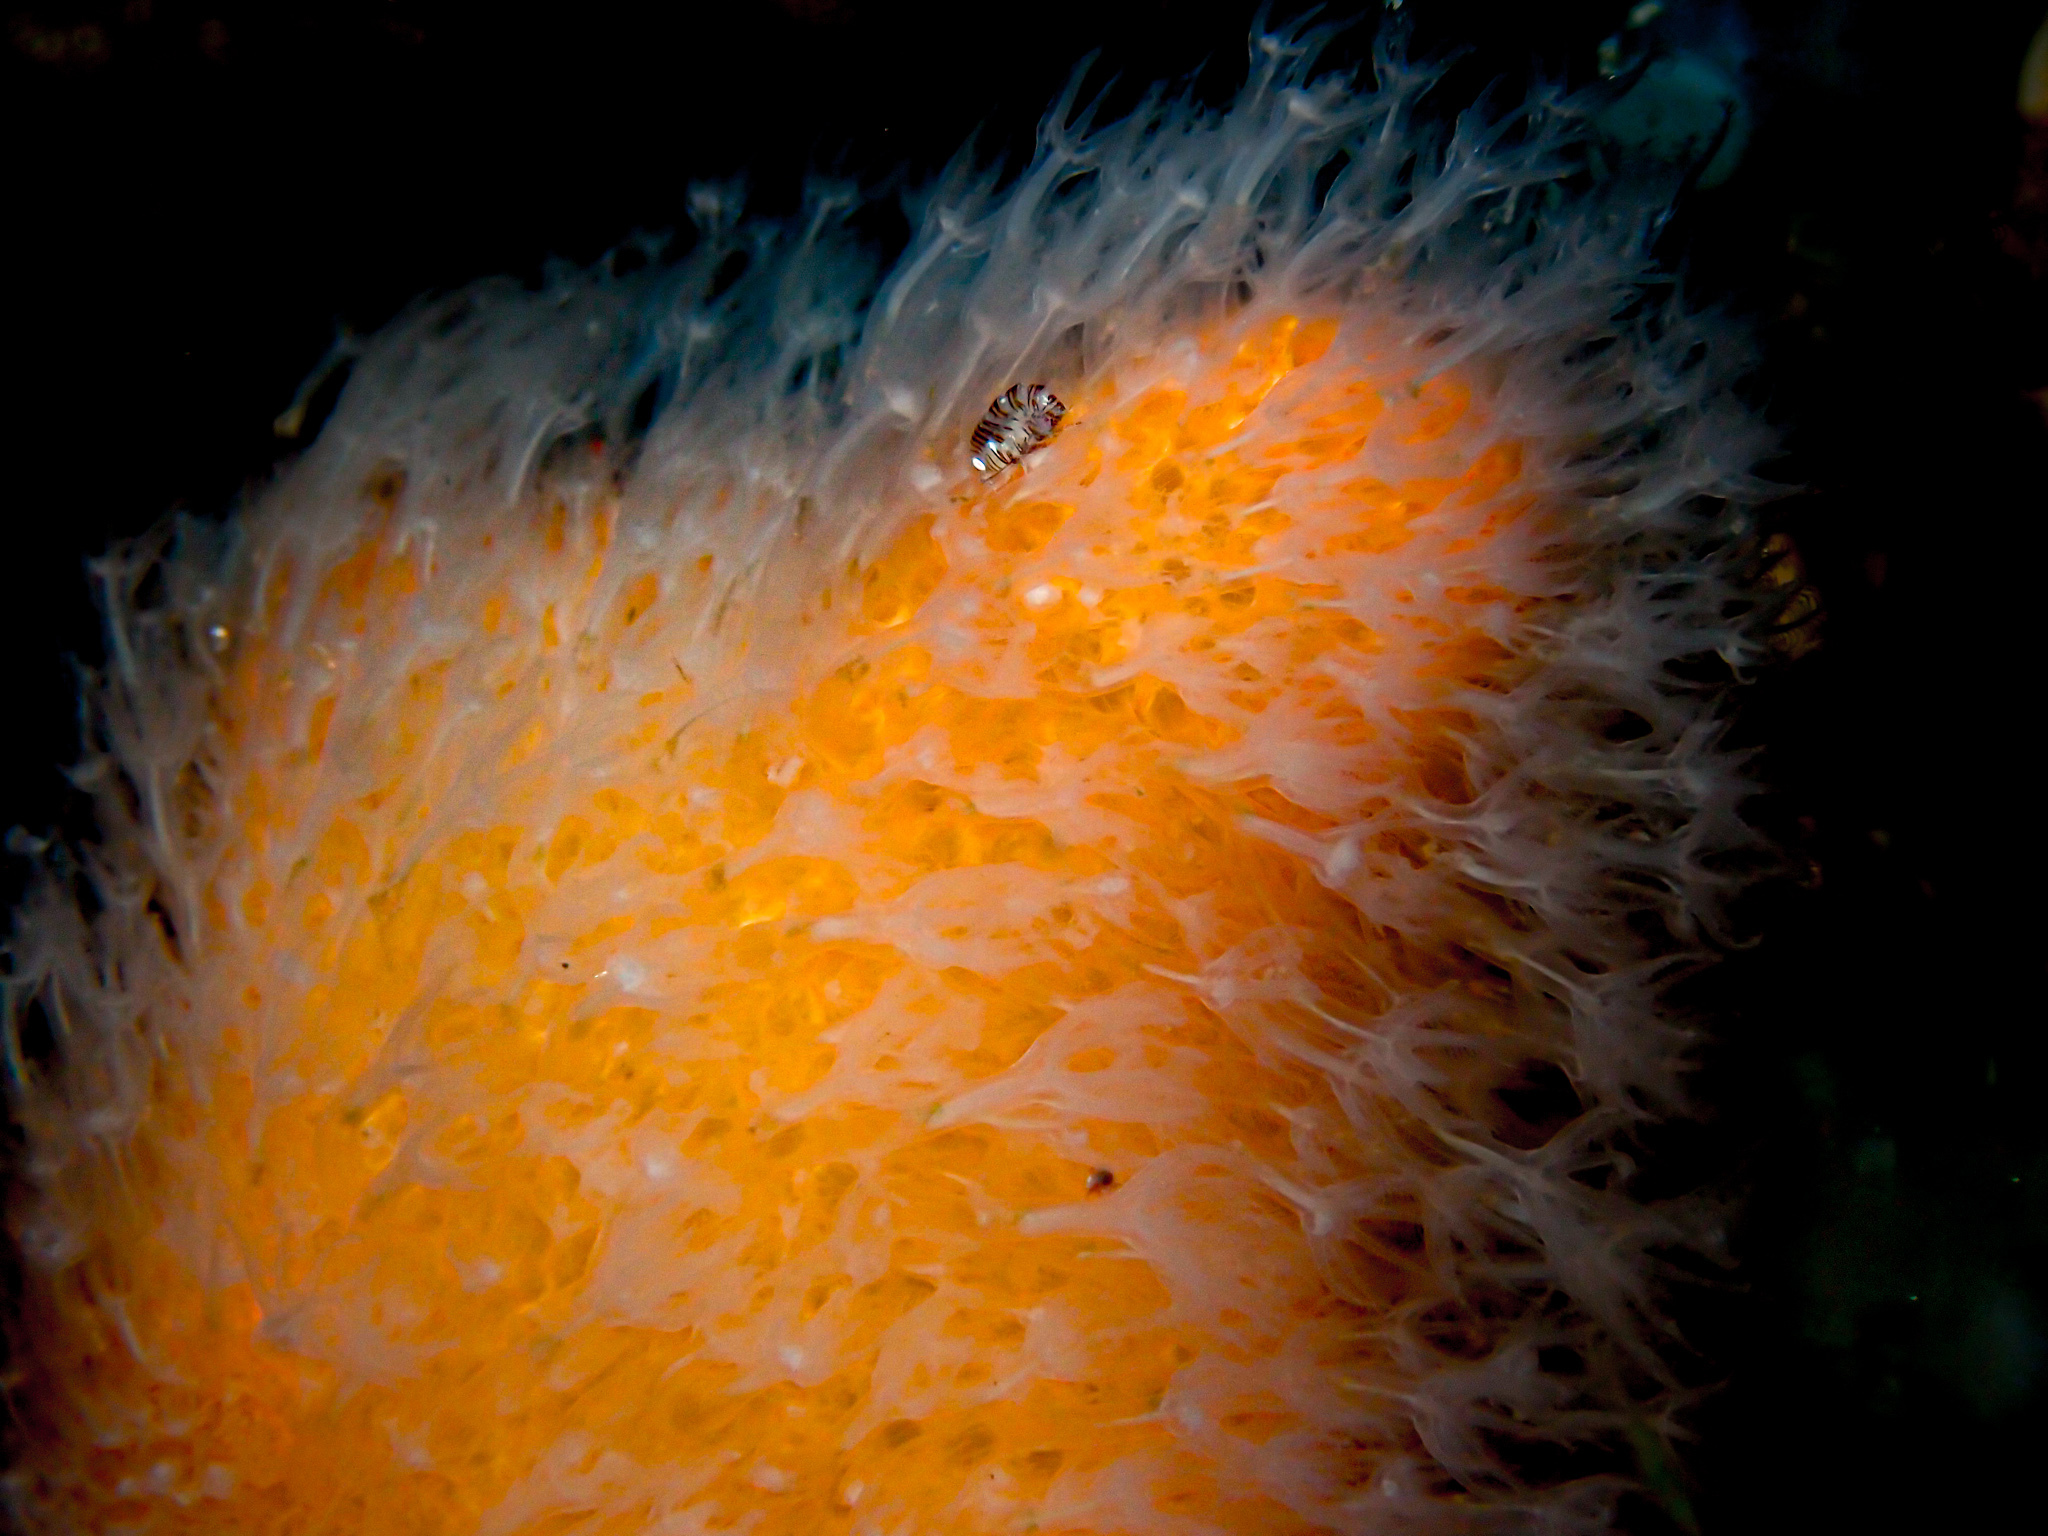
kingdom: Animalia
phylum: Arthropoda
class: Malacostraca
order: Amphipoda
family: Iphimediidae
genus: Iphimedia
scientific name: Iphimedia obesa
